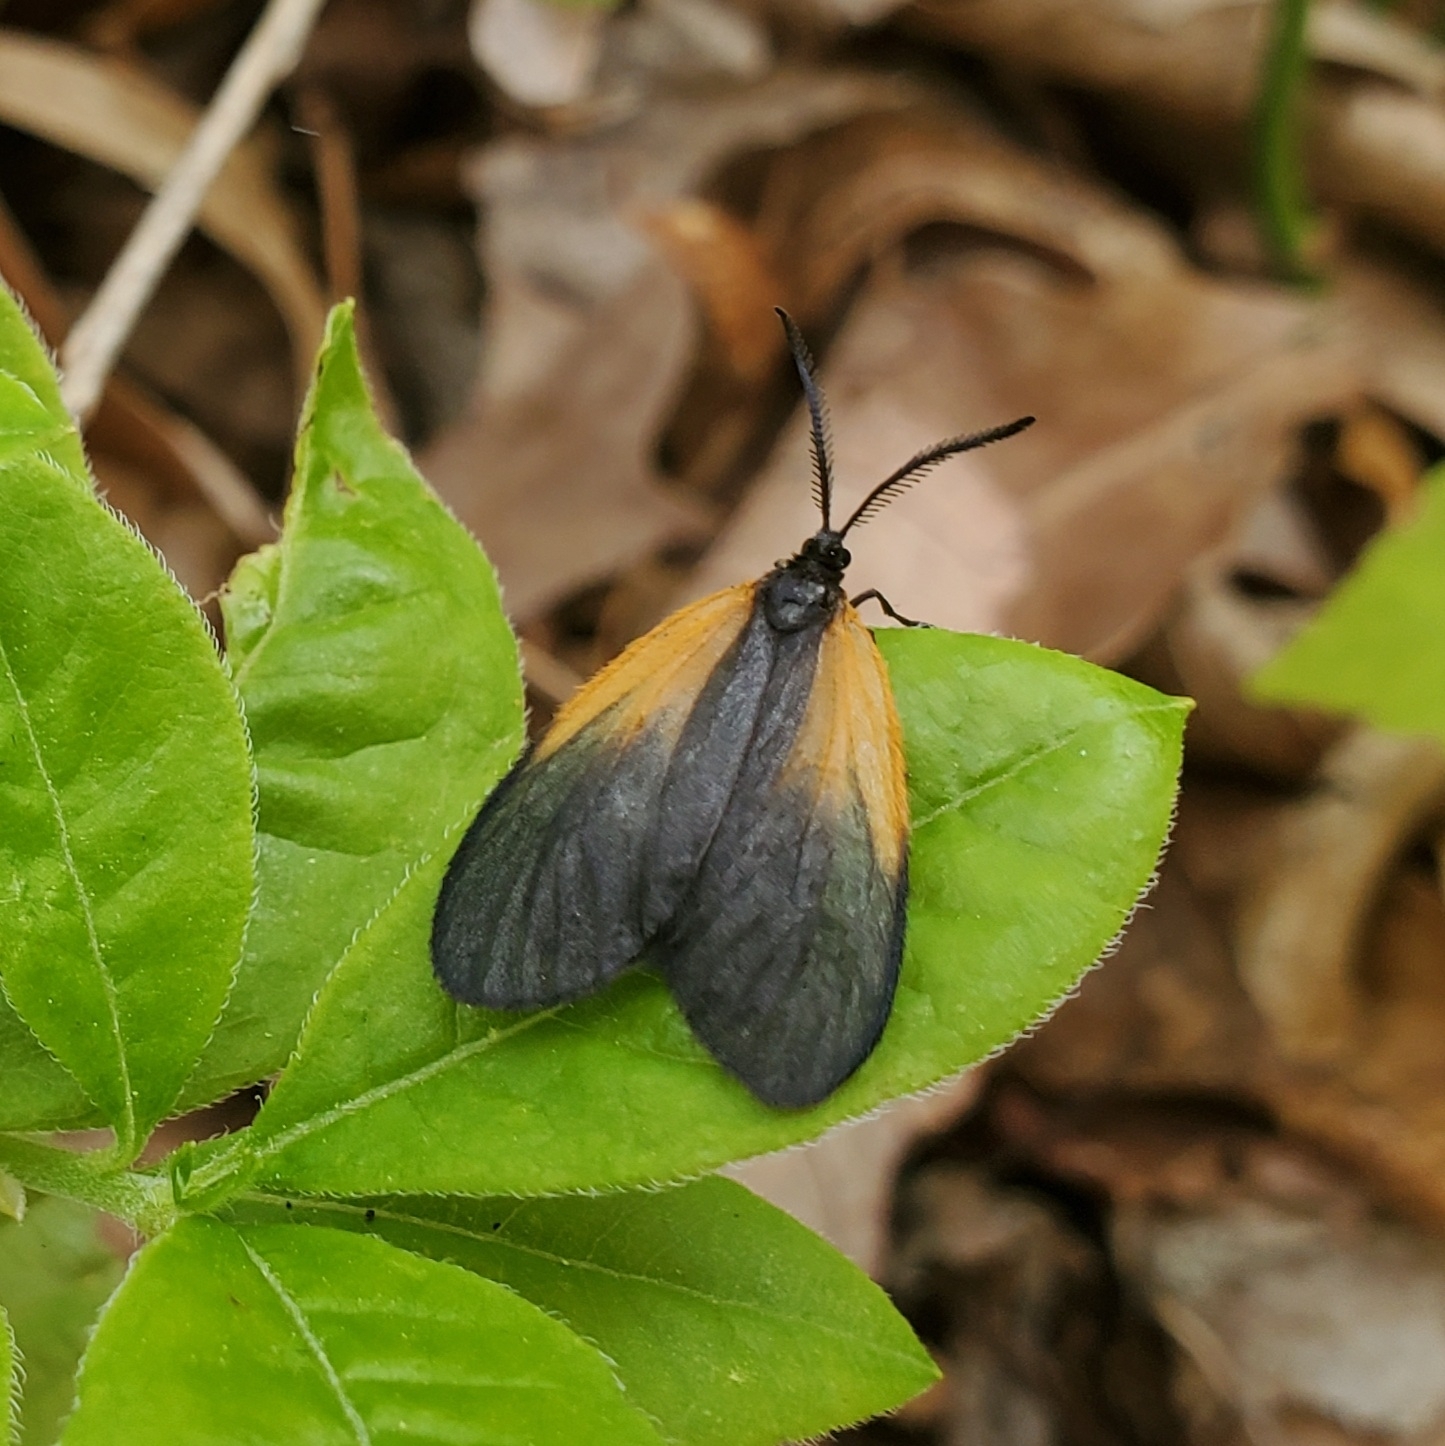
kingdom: Animalia
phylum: Arthropoda
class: Insecta
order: Lepidoptera
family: Zygaenidae
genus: Malthaca
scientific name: Malthaca dimidiata
